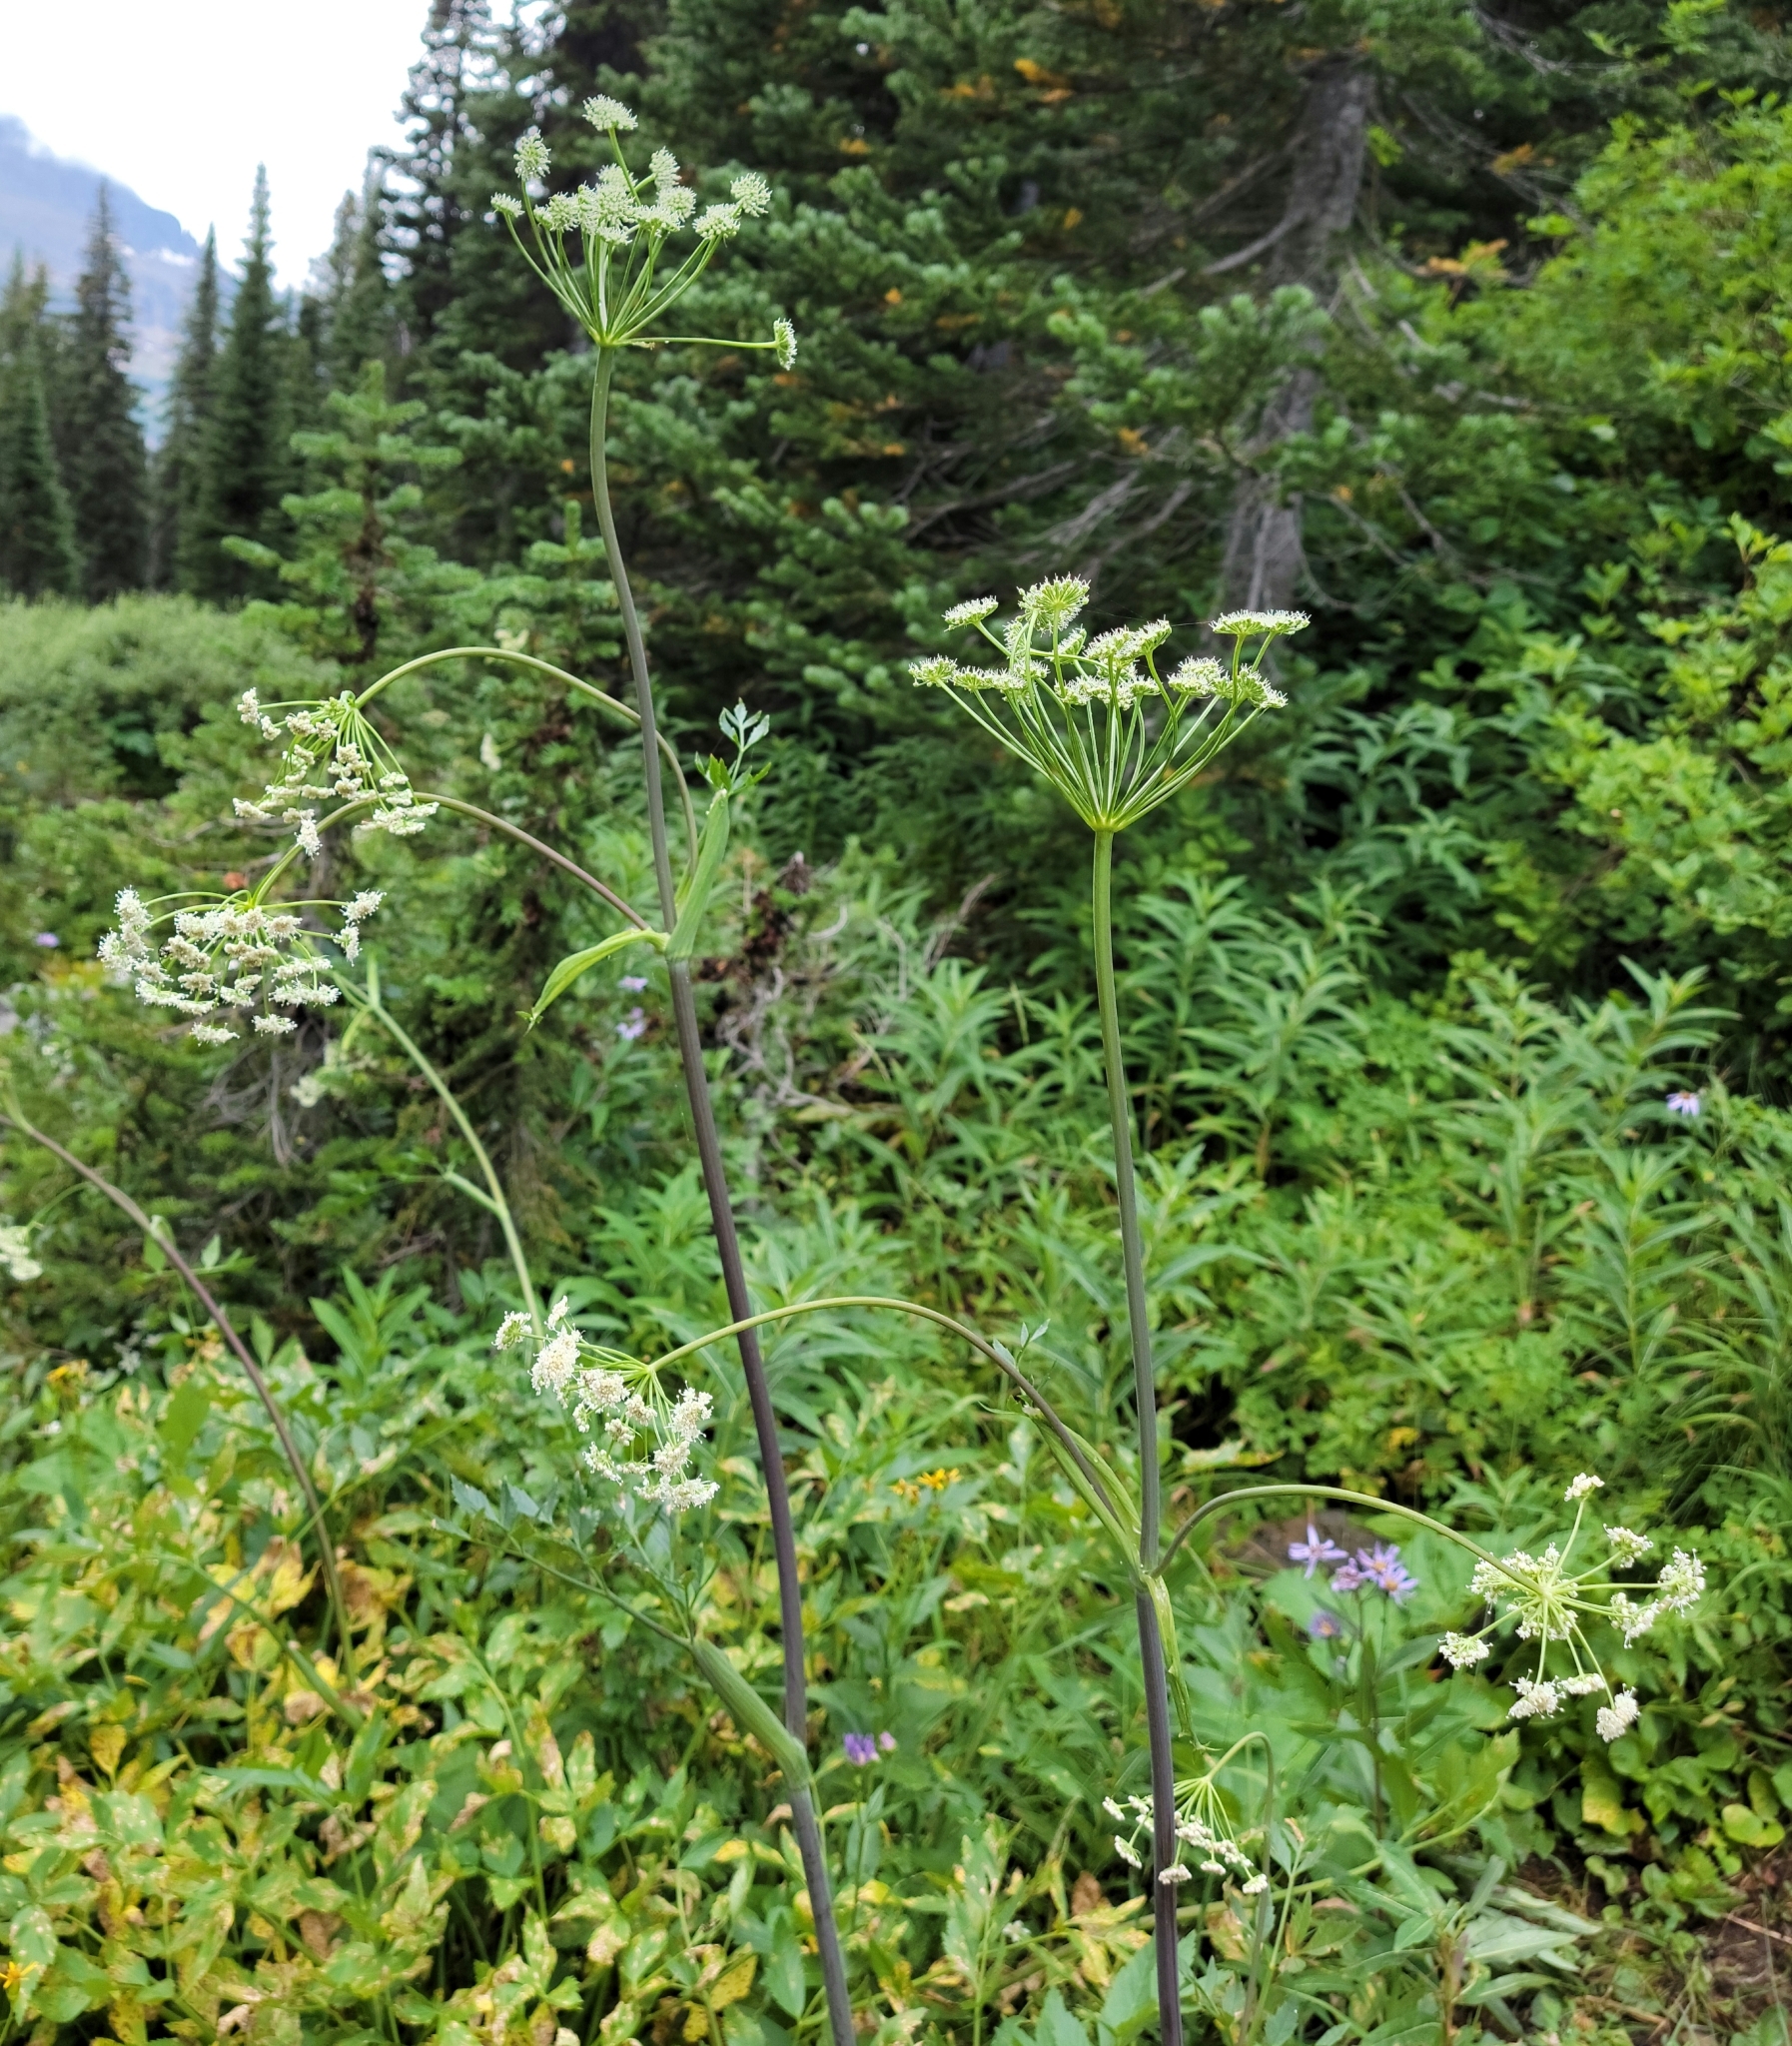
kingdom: Plantae
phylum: Tracheophyta
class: Magnoliopsida
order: Apiales
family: Apiaceae
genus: Angelica
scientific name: Angelica arguta
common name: Lyall's angelica
